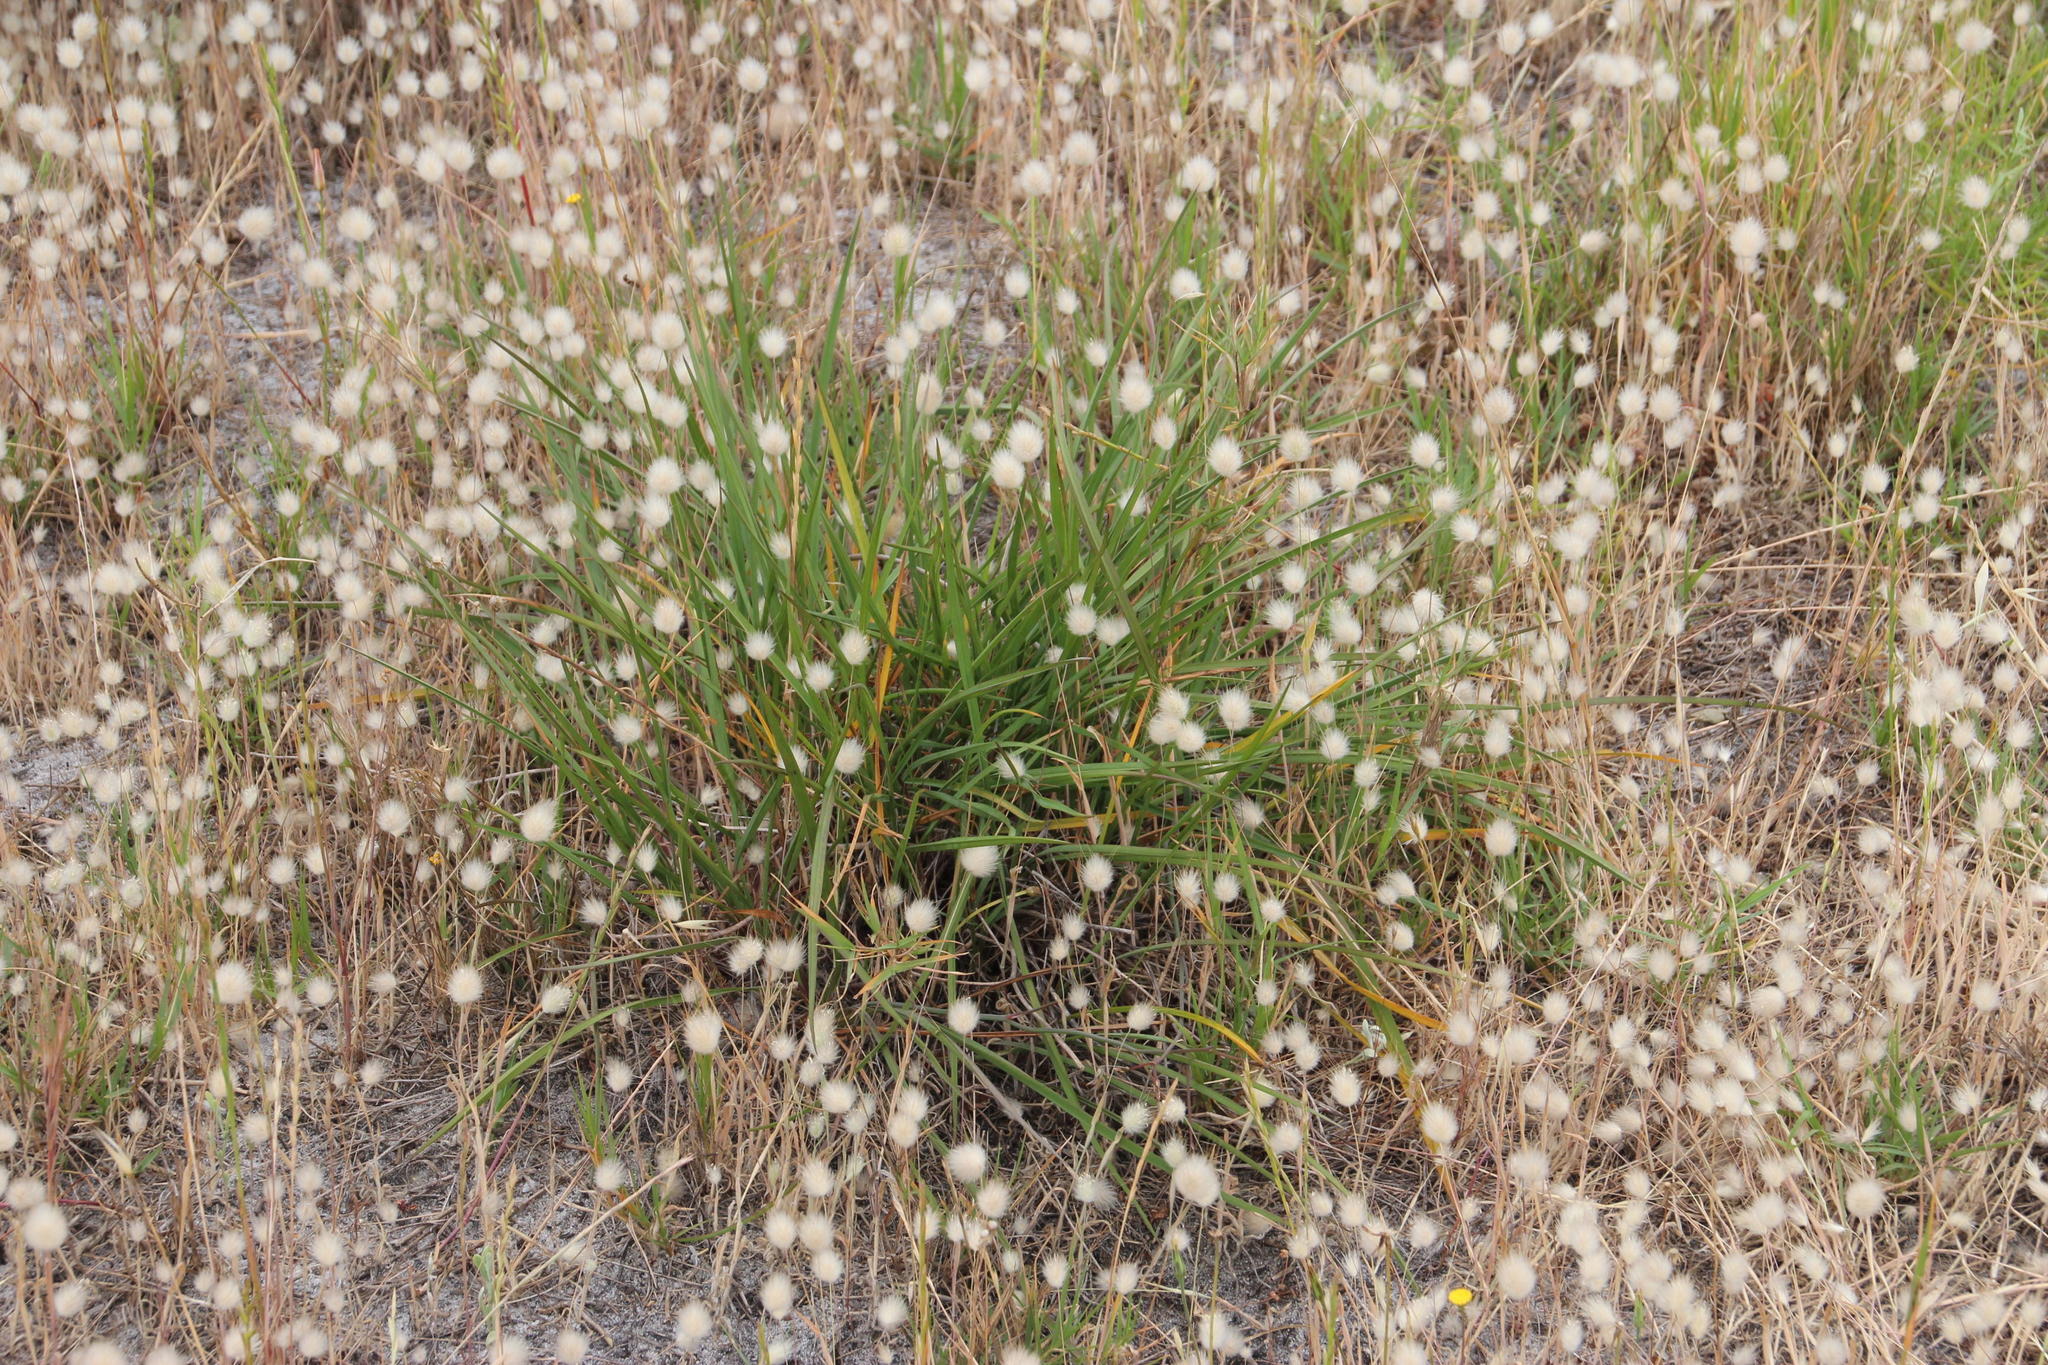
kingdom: Plantae
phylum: Tracheophyta
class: Liliopsida
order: Asparagales
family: Asphodelaceae
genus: Caesia
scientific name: Caesia contorta
